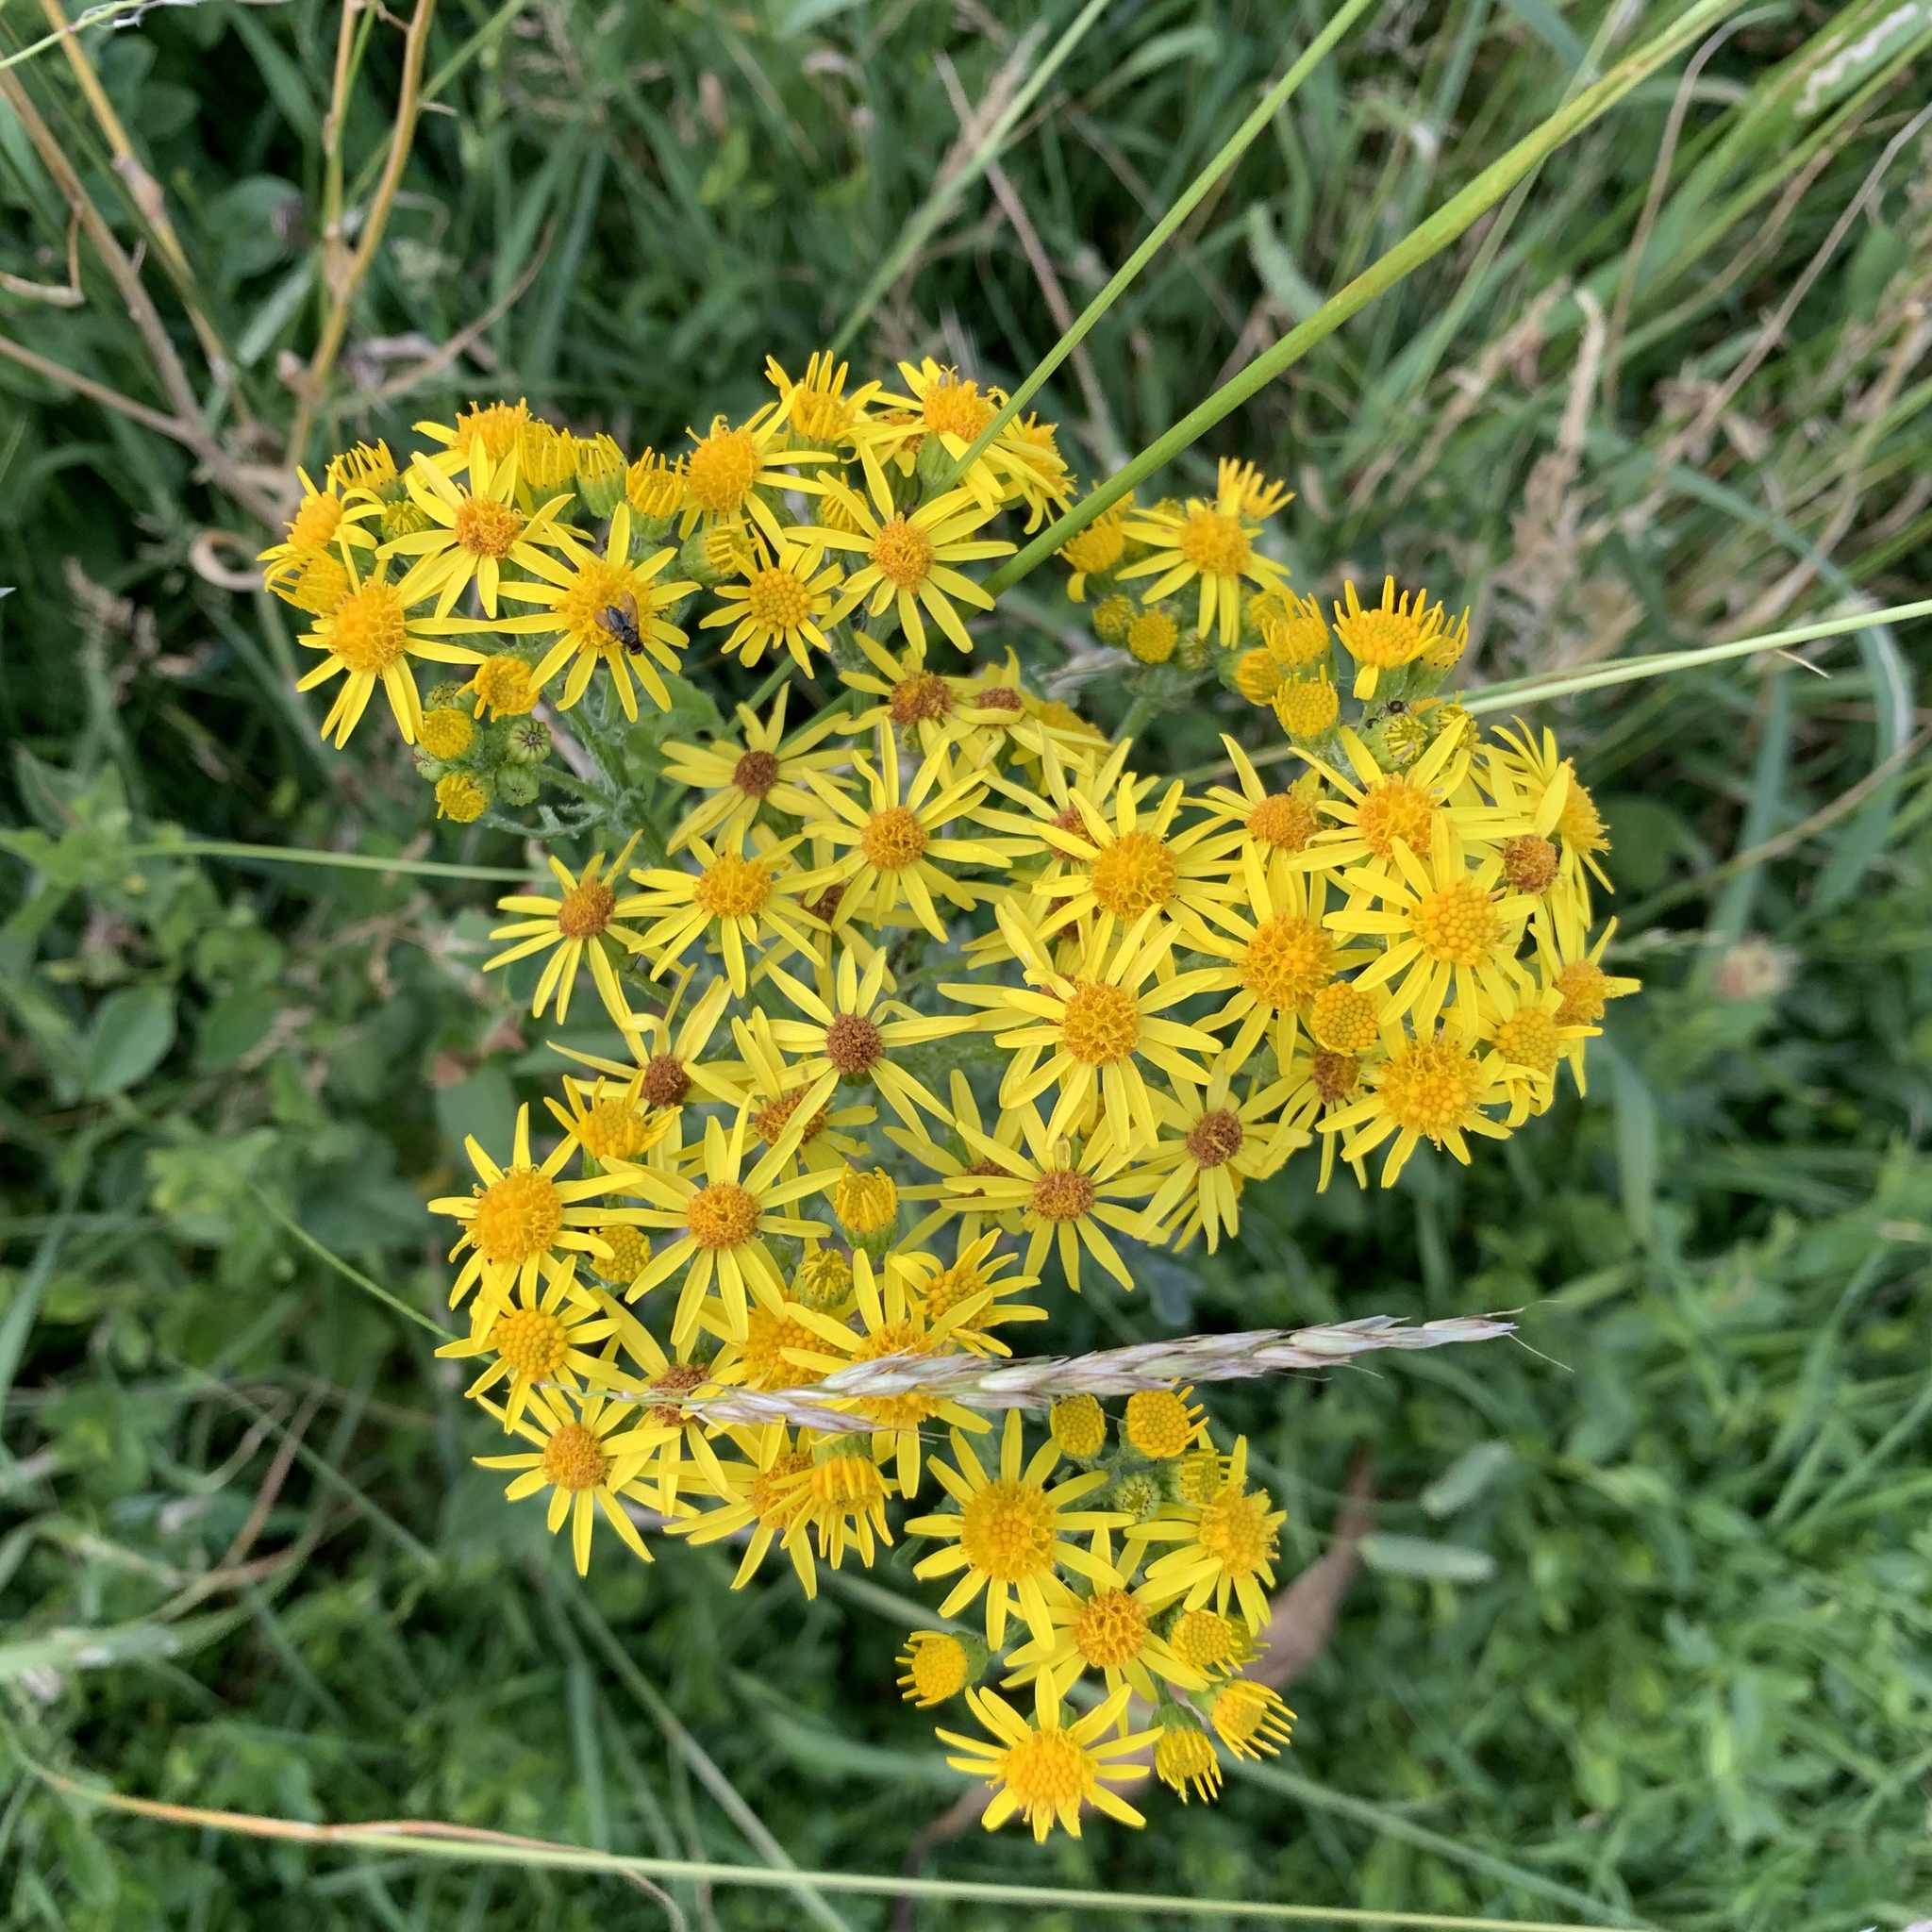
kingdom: Plantae
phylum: Tracheophyta
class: Magnoliopsida
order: Asterales
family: Asteraceae
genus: Jacobaea
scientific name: Jacobaea vulgaris
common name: Stinking willie
